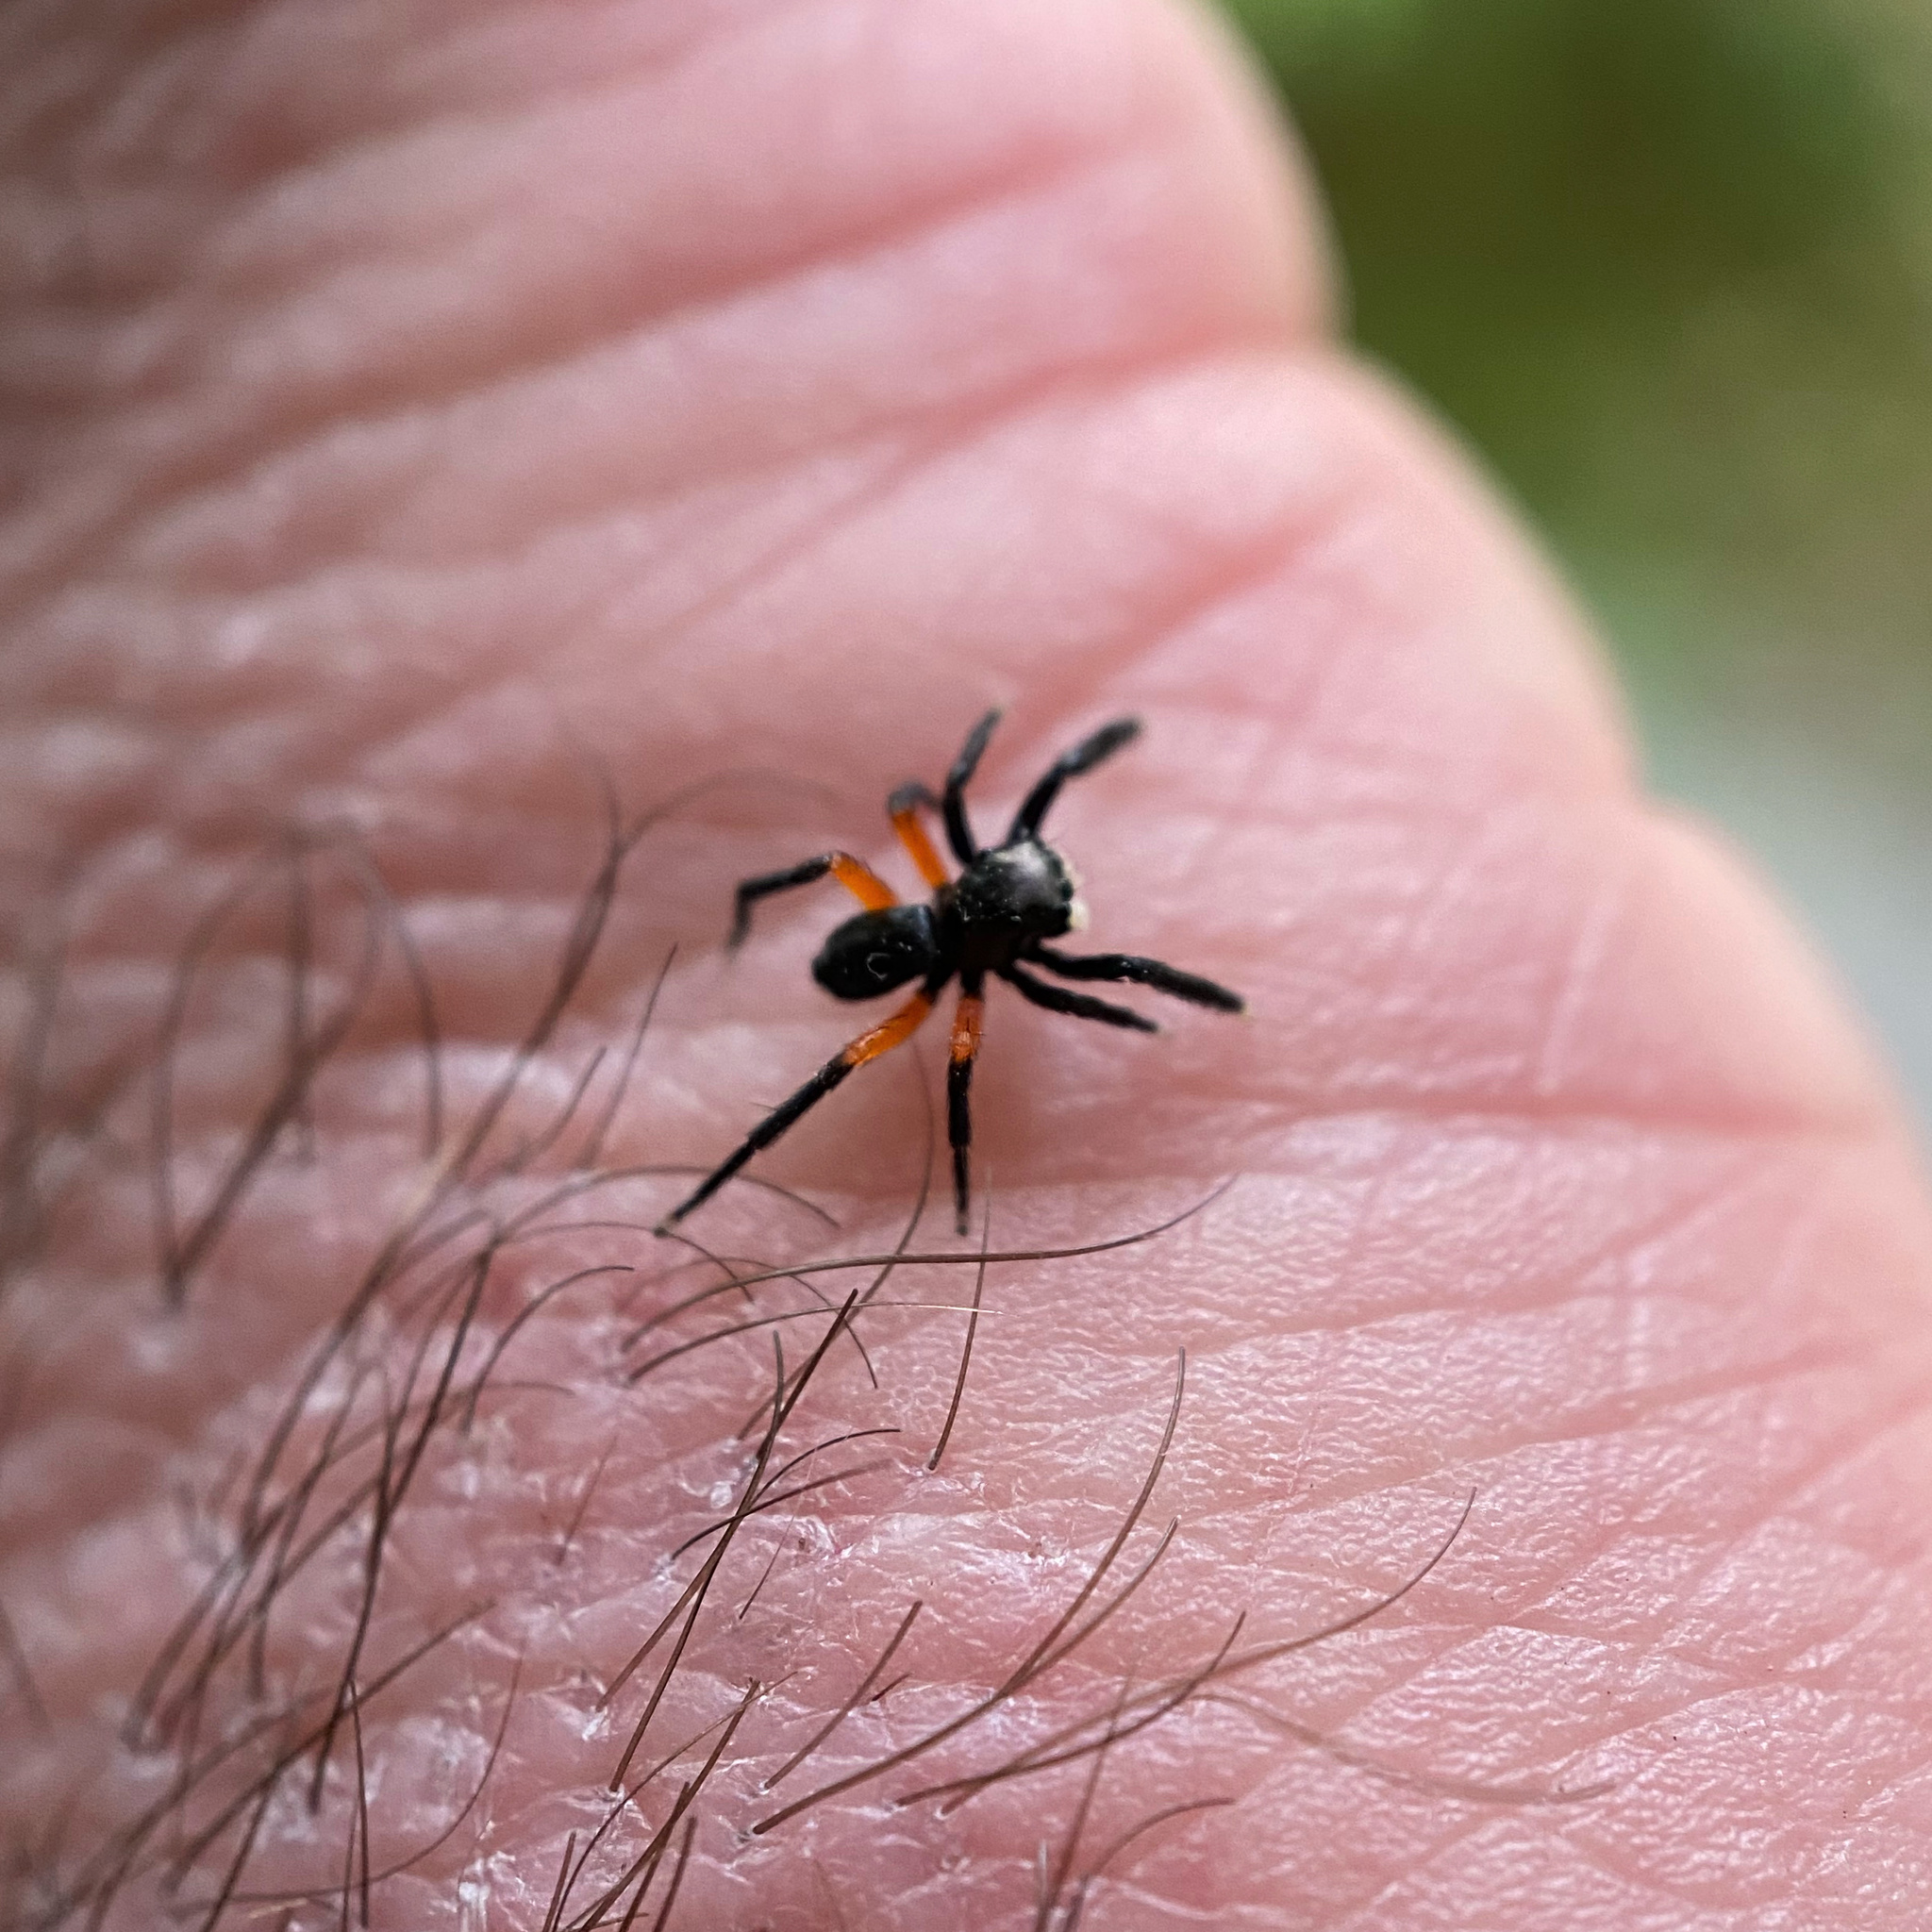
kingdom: Animalia
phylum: Arthropoda
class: Arachnida
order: Araneae
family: Salticidae
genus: Euophrys
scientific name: Euophrys monadnock
